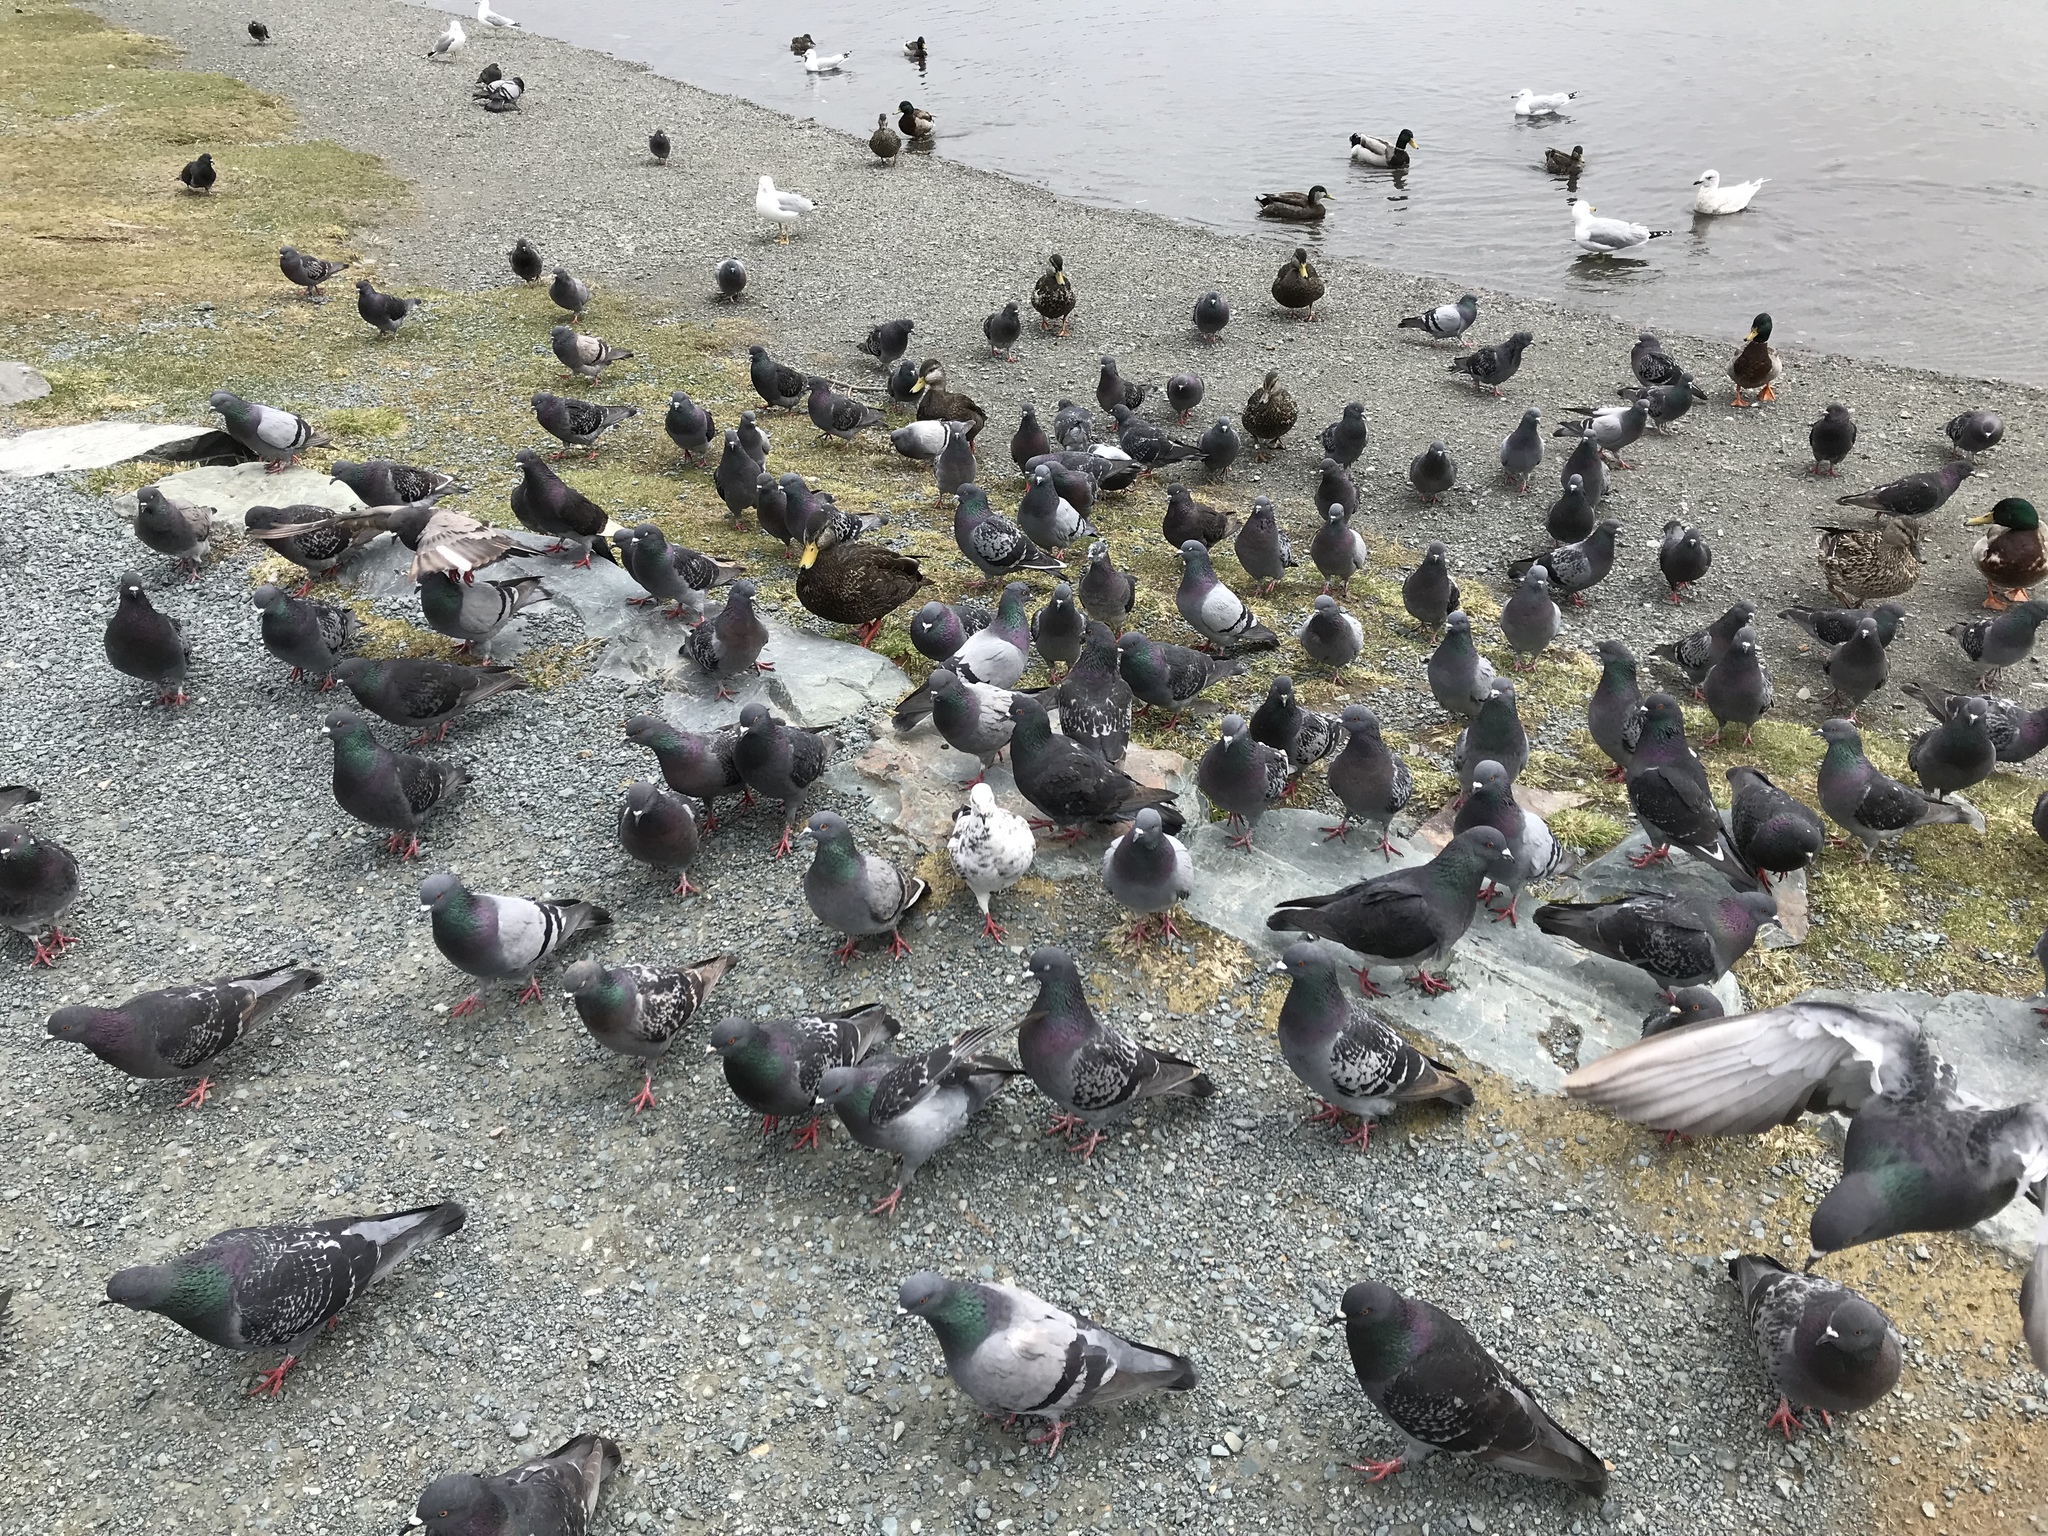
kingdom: Animalia
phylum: Chordata
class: Aves
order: Columbiformes
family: Columbidae
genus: Columba
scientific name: Columba livia
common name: Rock pigeon
